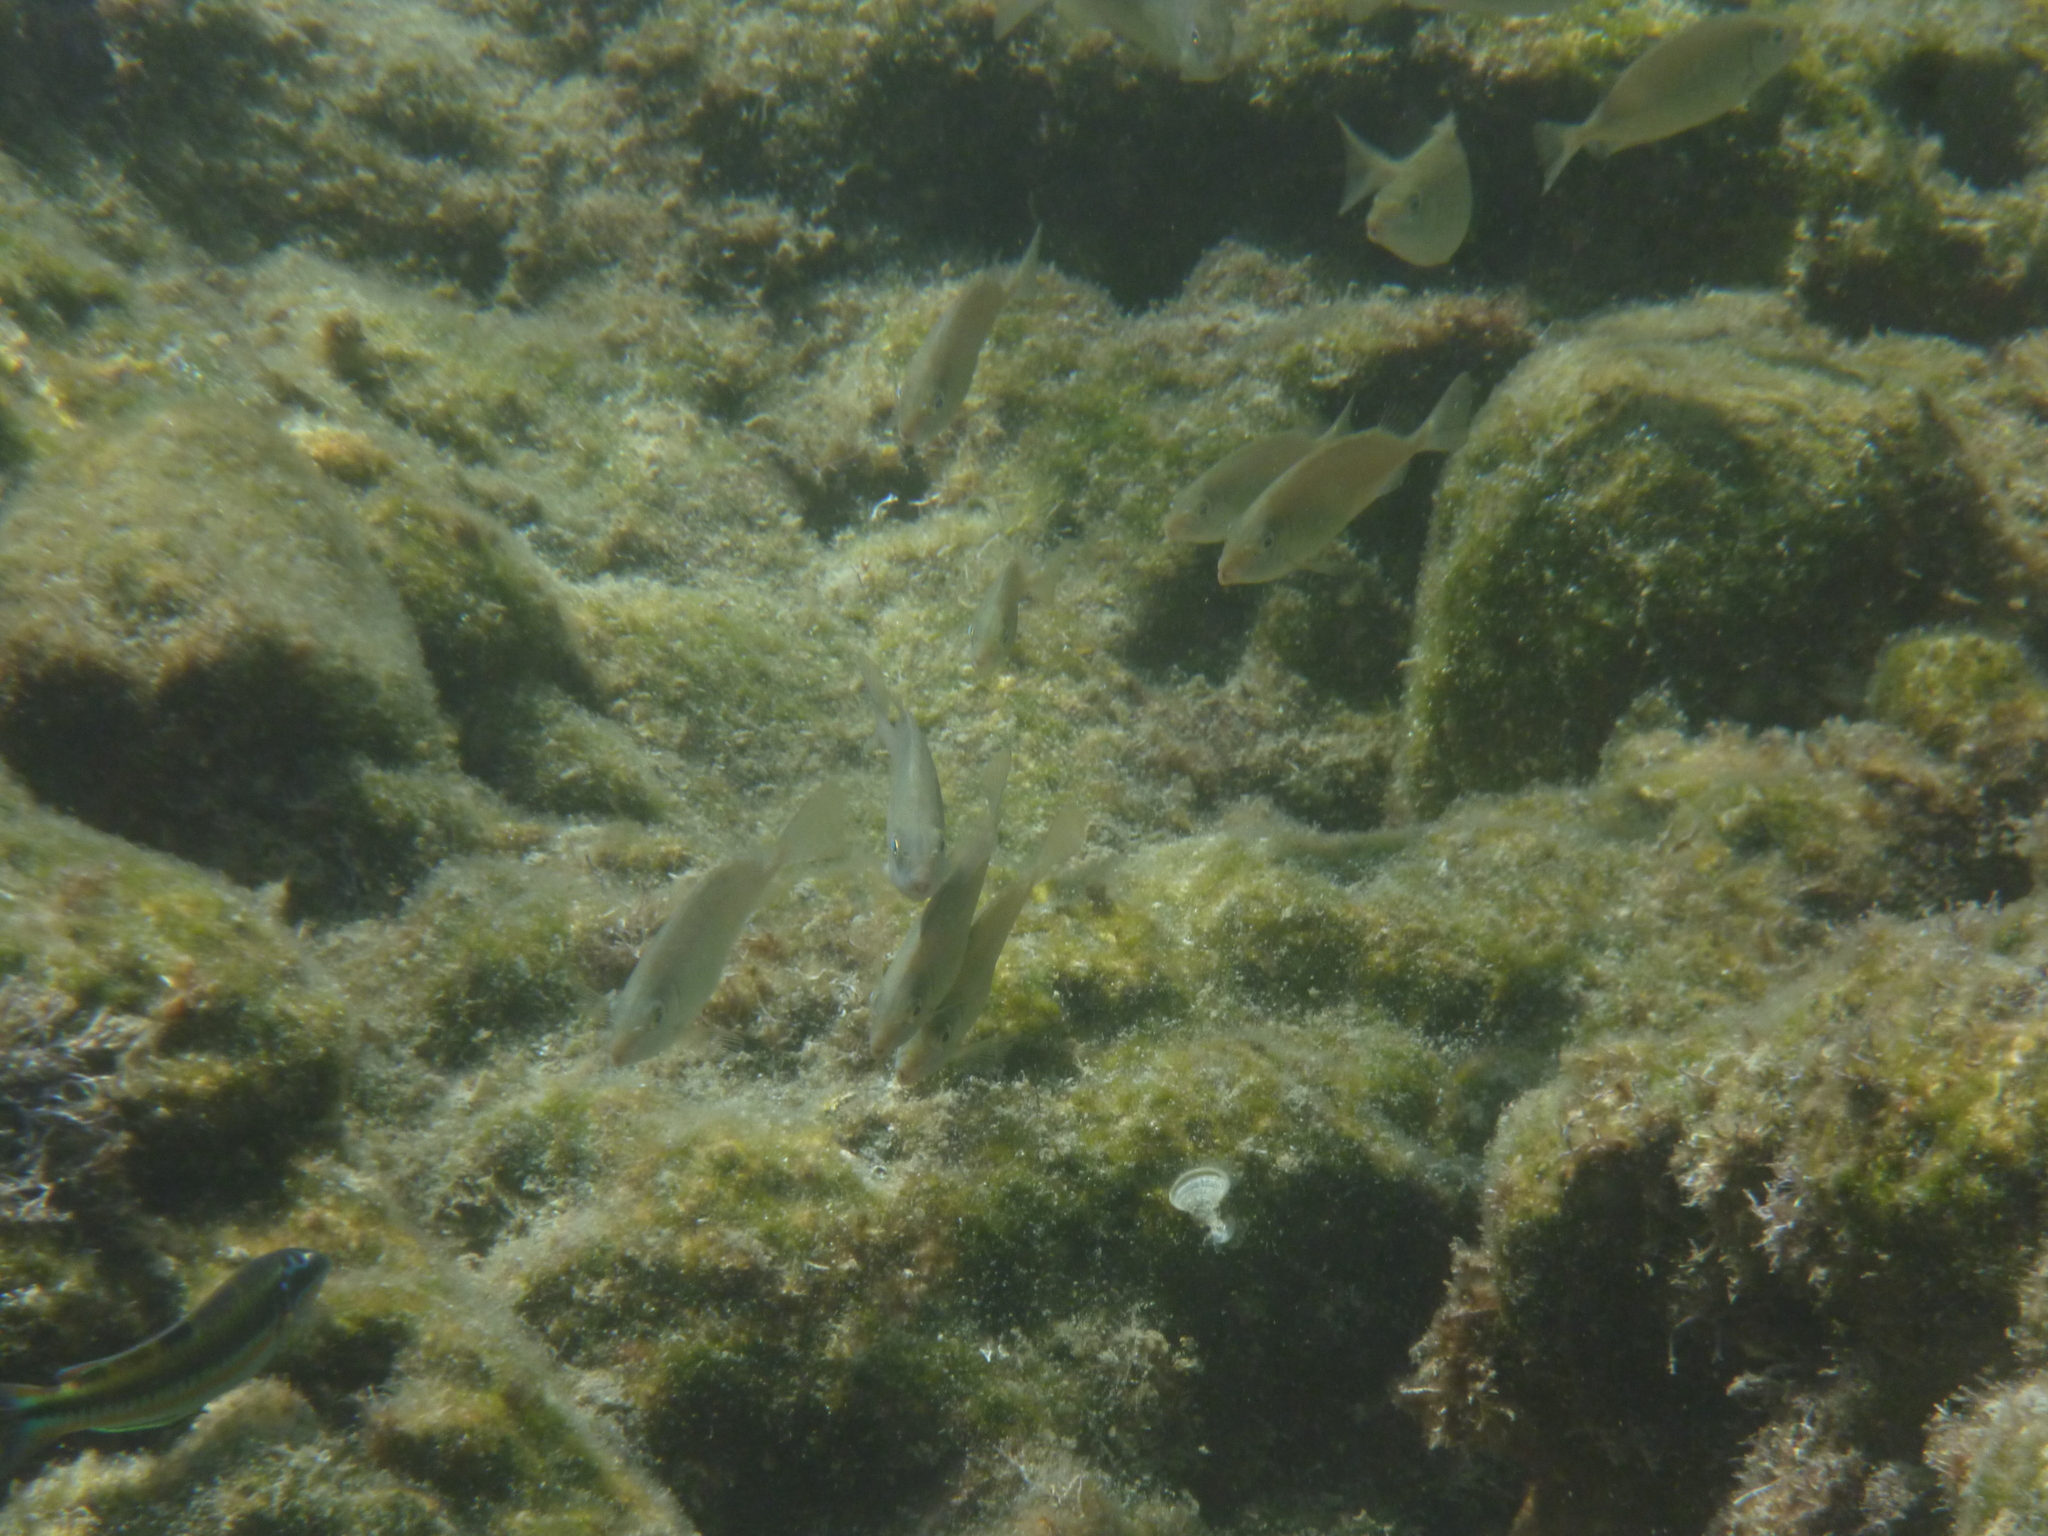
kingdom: Animalia
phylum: Chordata
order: Perciformes
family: Siganidae
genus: Siganus
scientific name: Siganus rivulatus
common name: Marbled spinefoot
